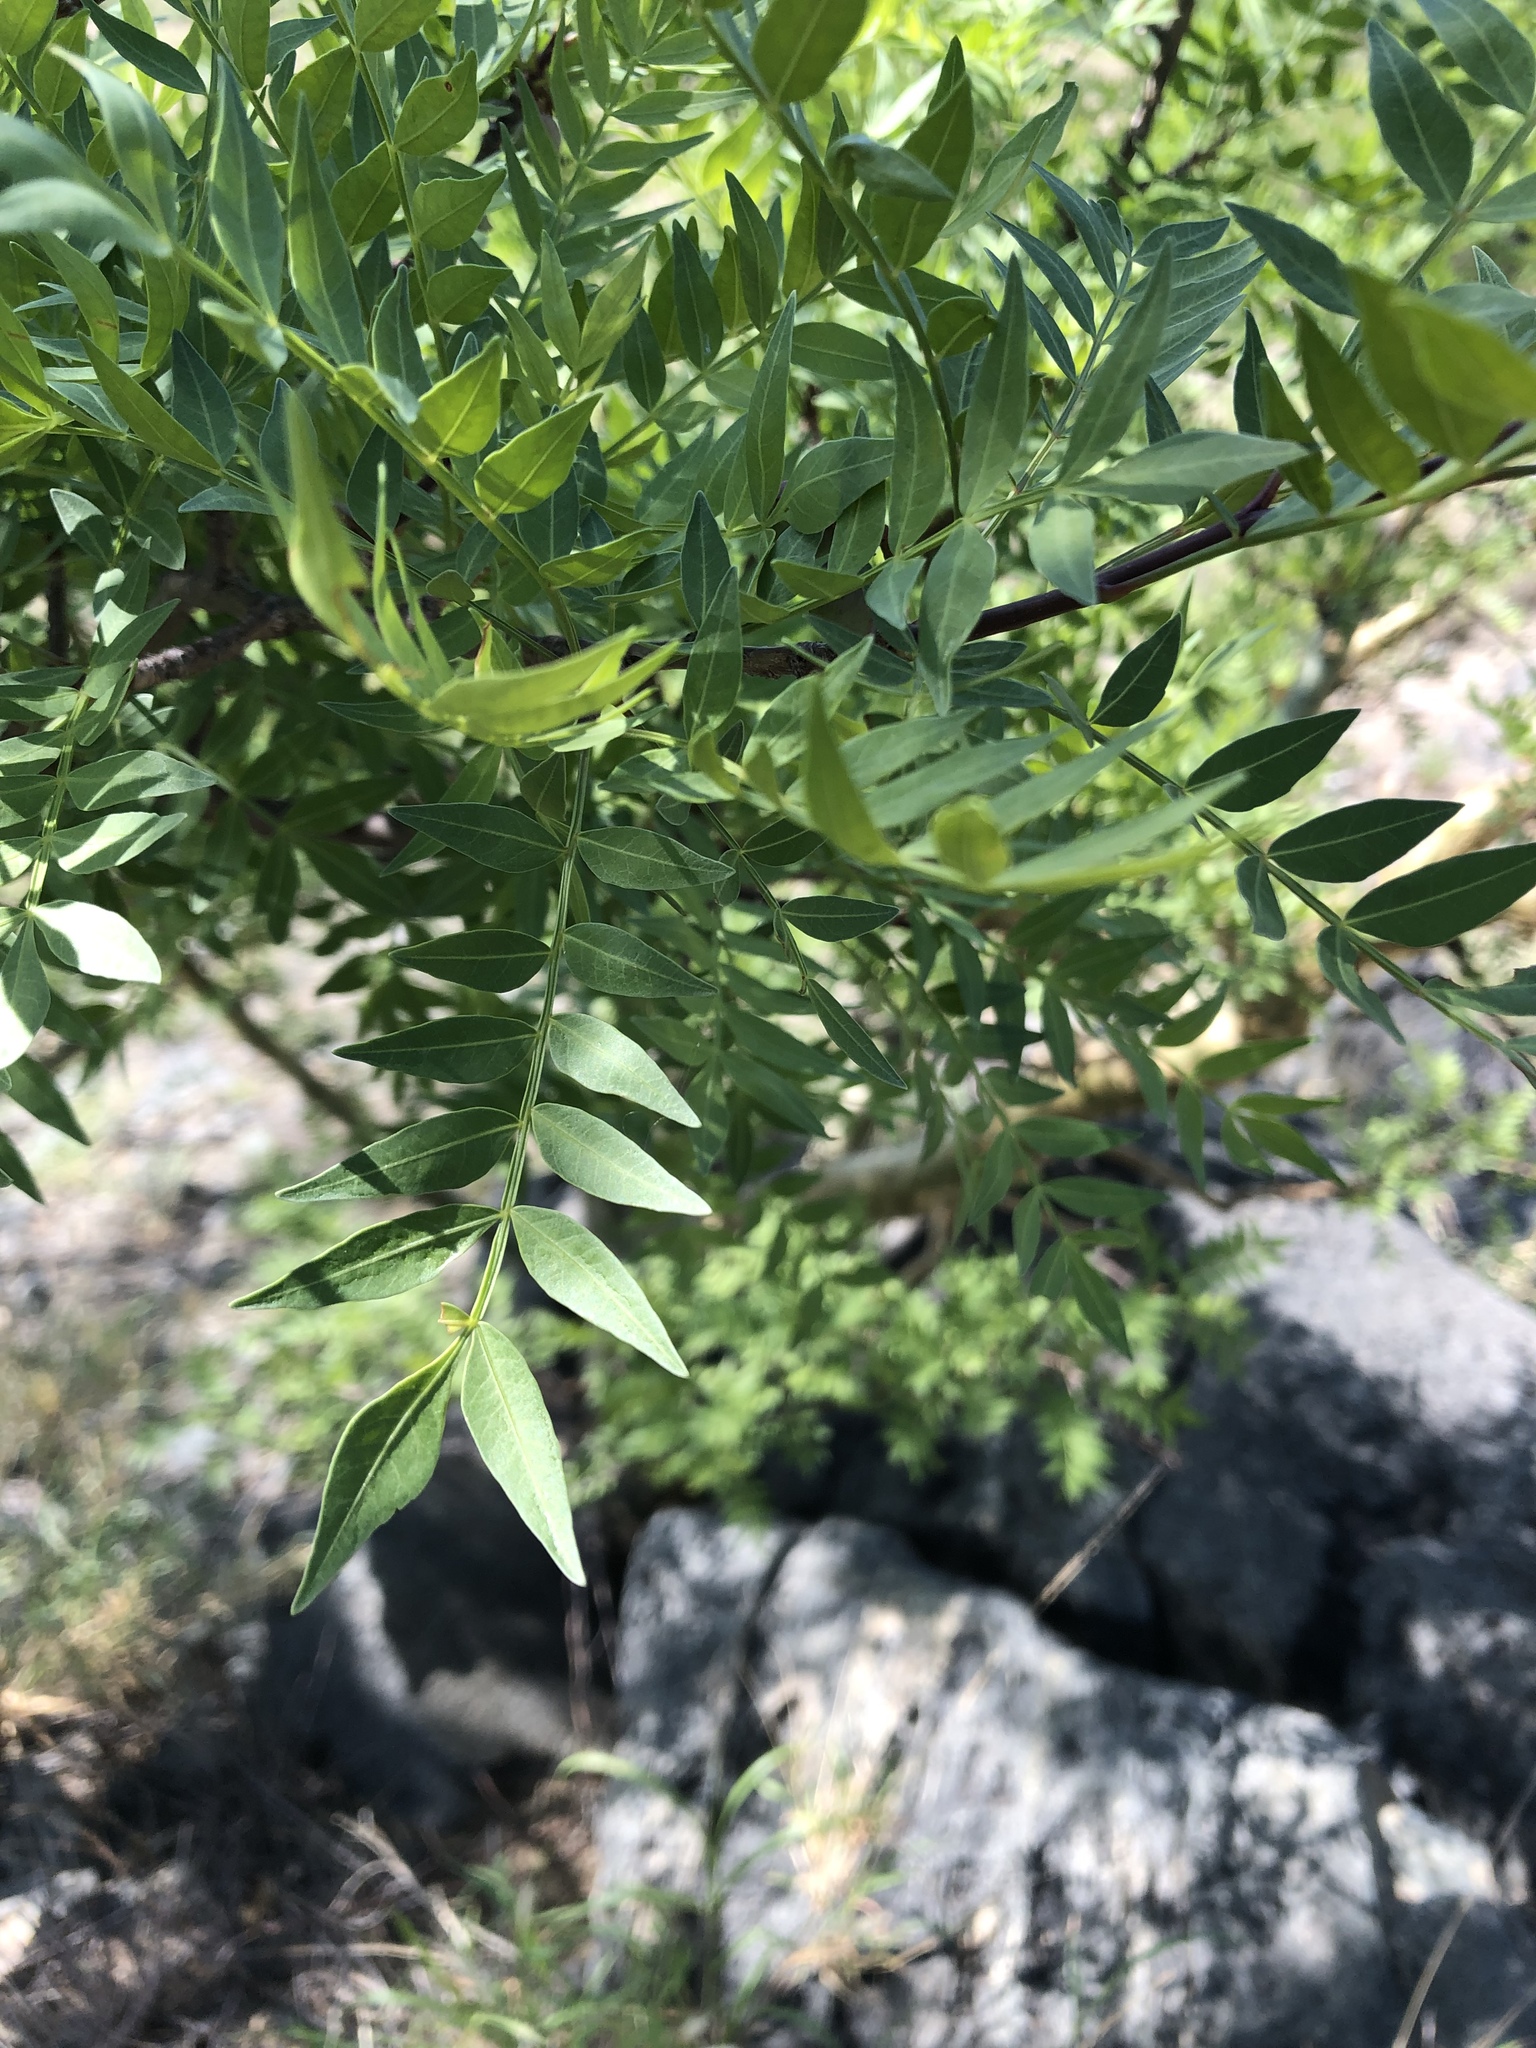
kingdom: Plantae
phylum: Tracheophyta
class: Magnoliopsida
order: Sapindales
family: Burseraceae
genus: Bursera
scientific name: Bursera fagaroides
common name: Elephant tree
